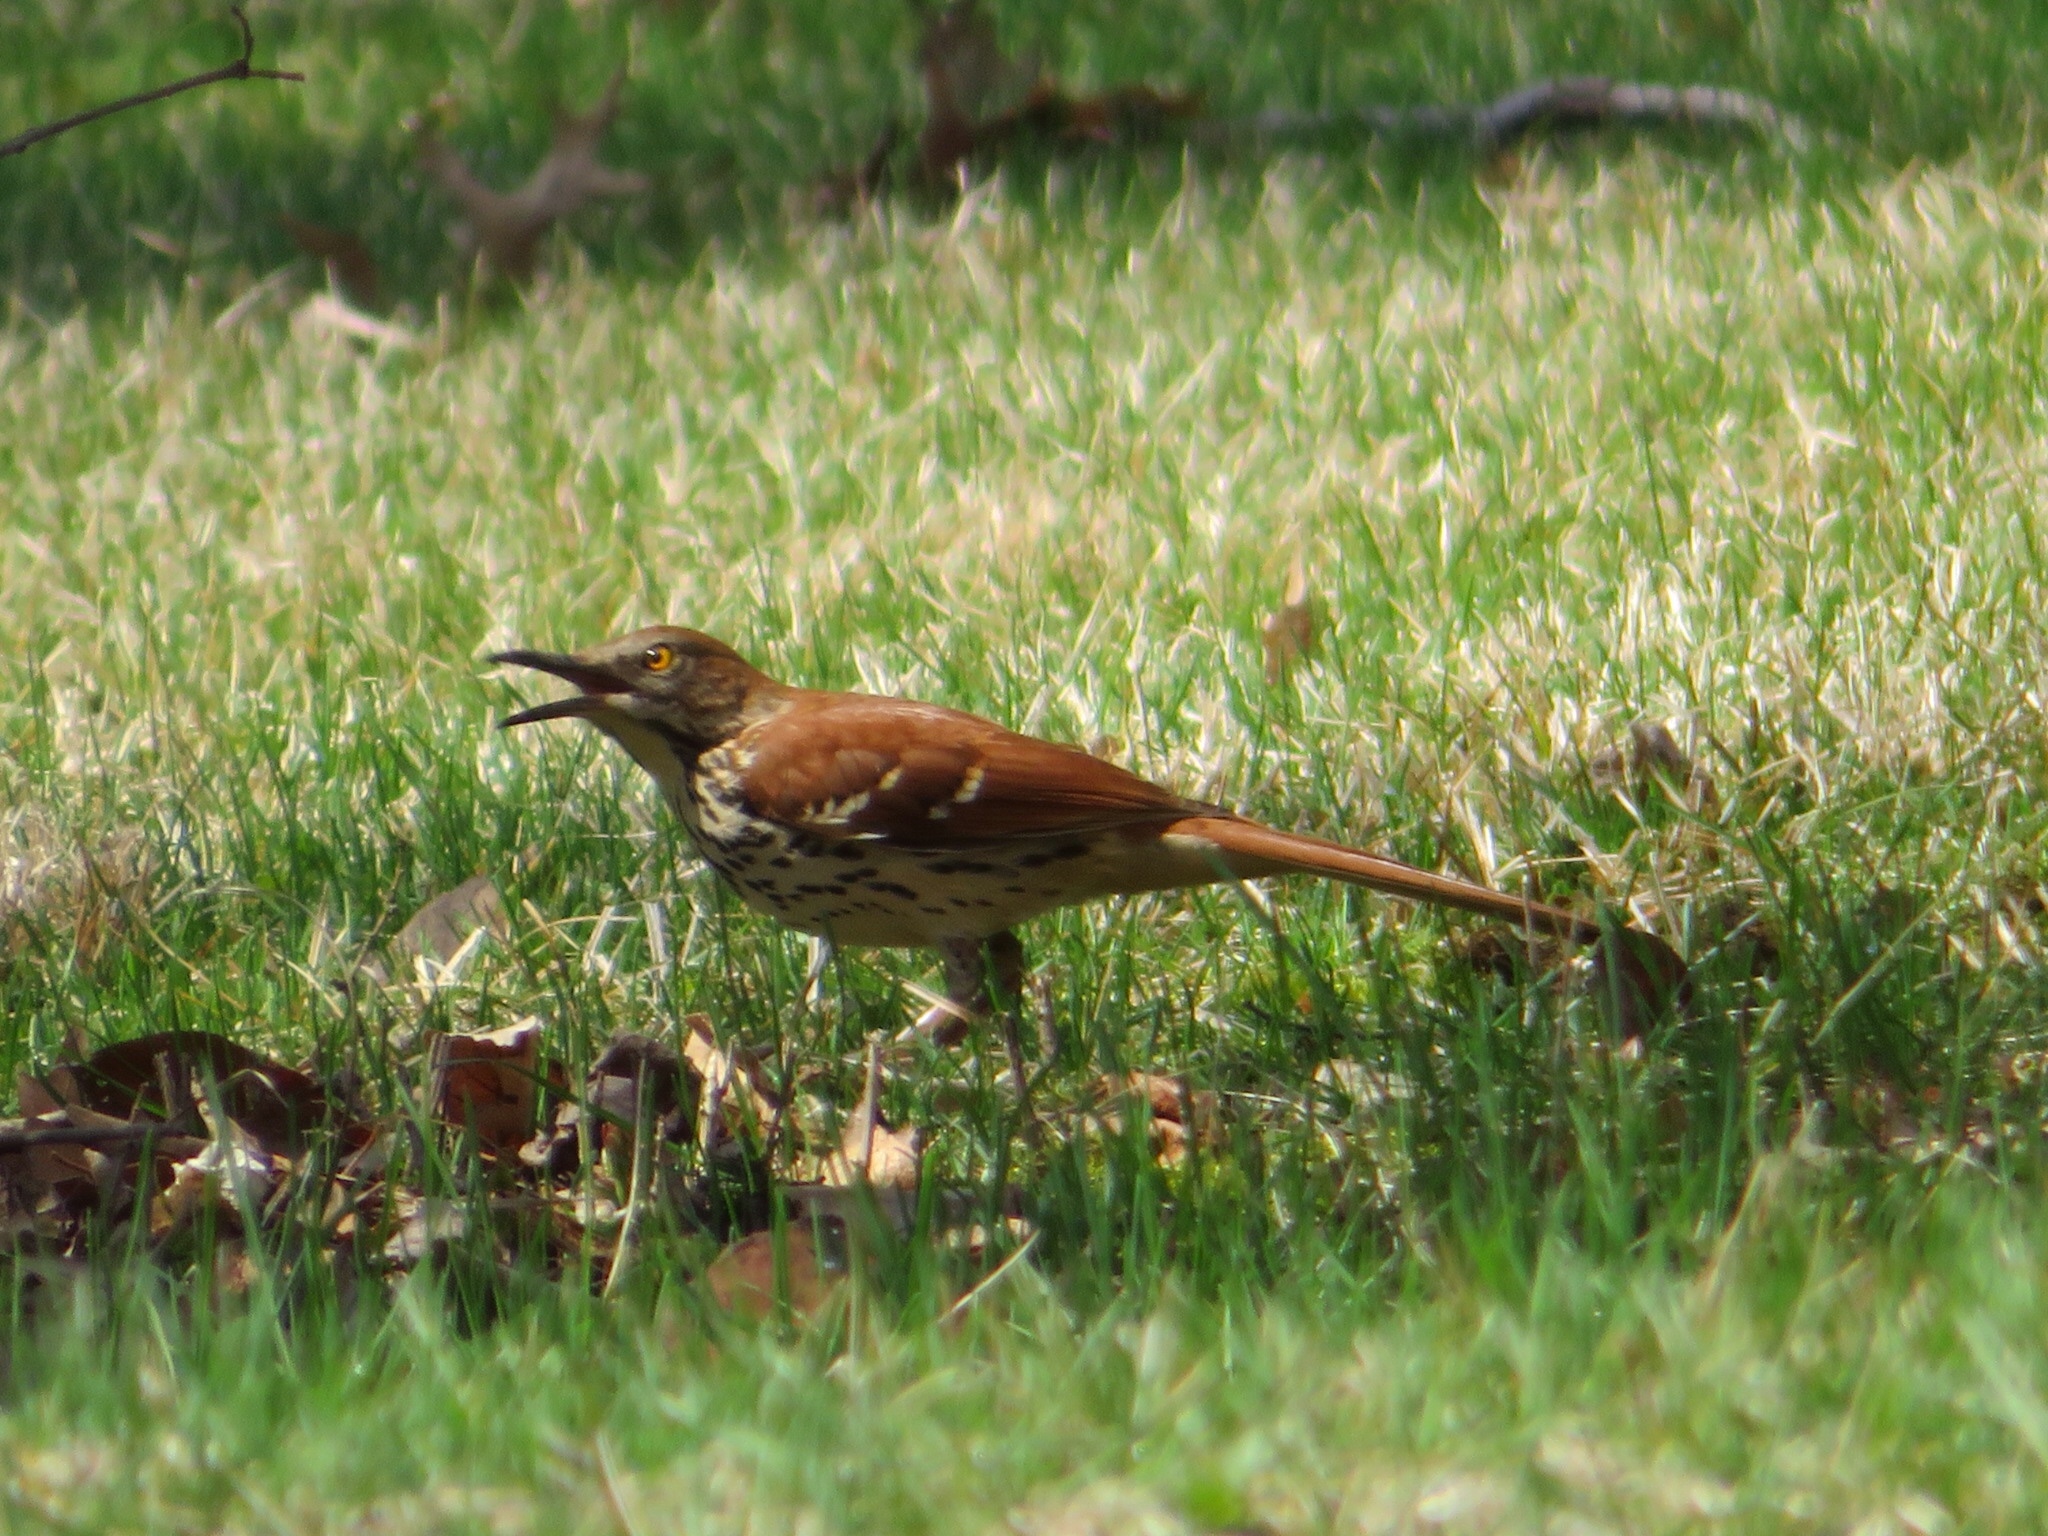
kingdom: Animalia
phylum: Chordata
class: Aves
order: Passeriformes
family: Mimidae
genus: Toxostoma
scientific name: Toxostoma rufum
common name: Brown thrasher
